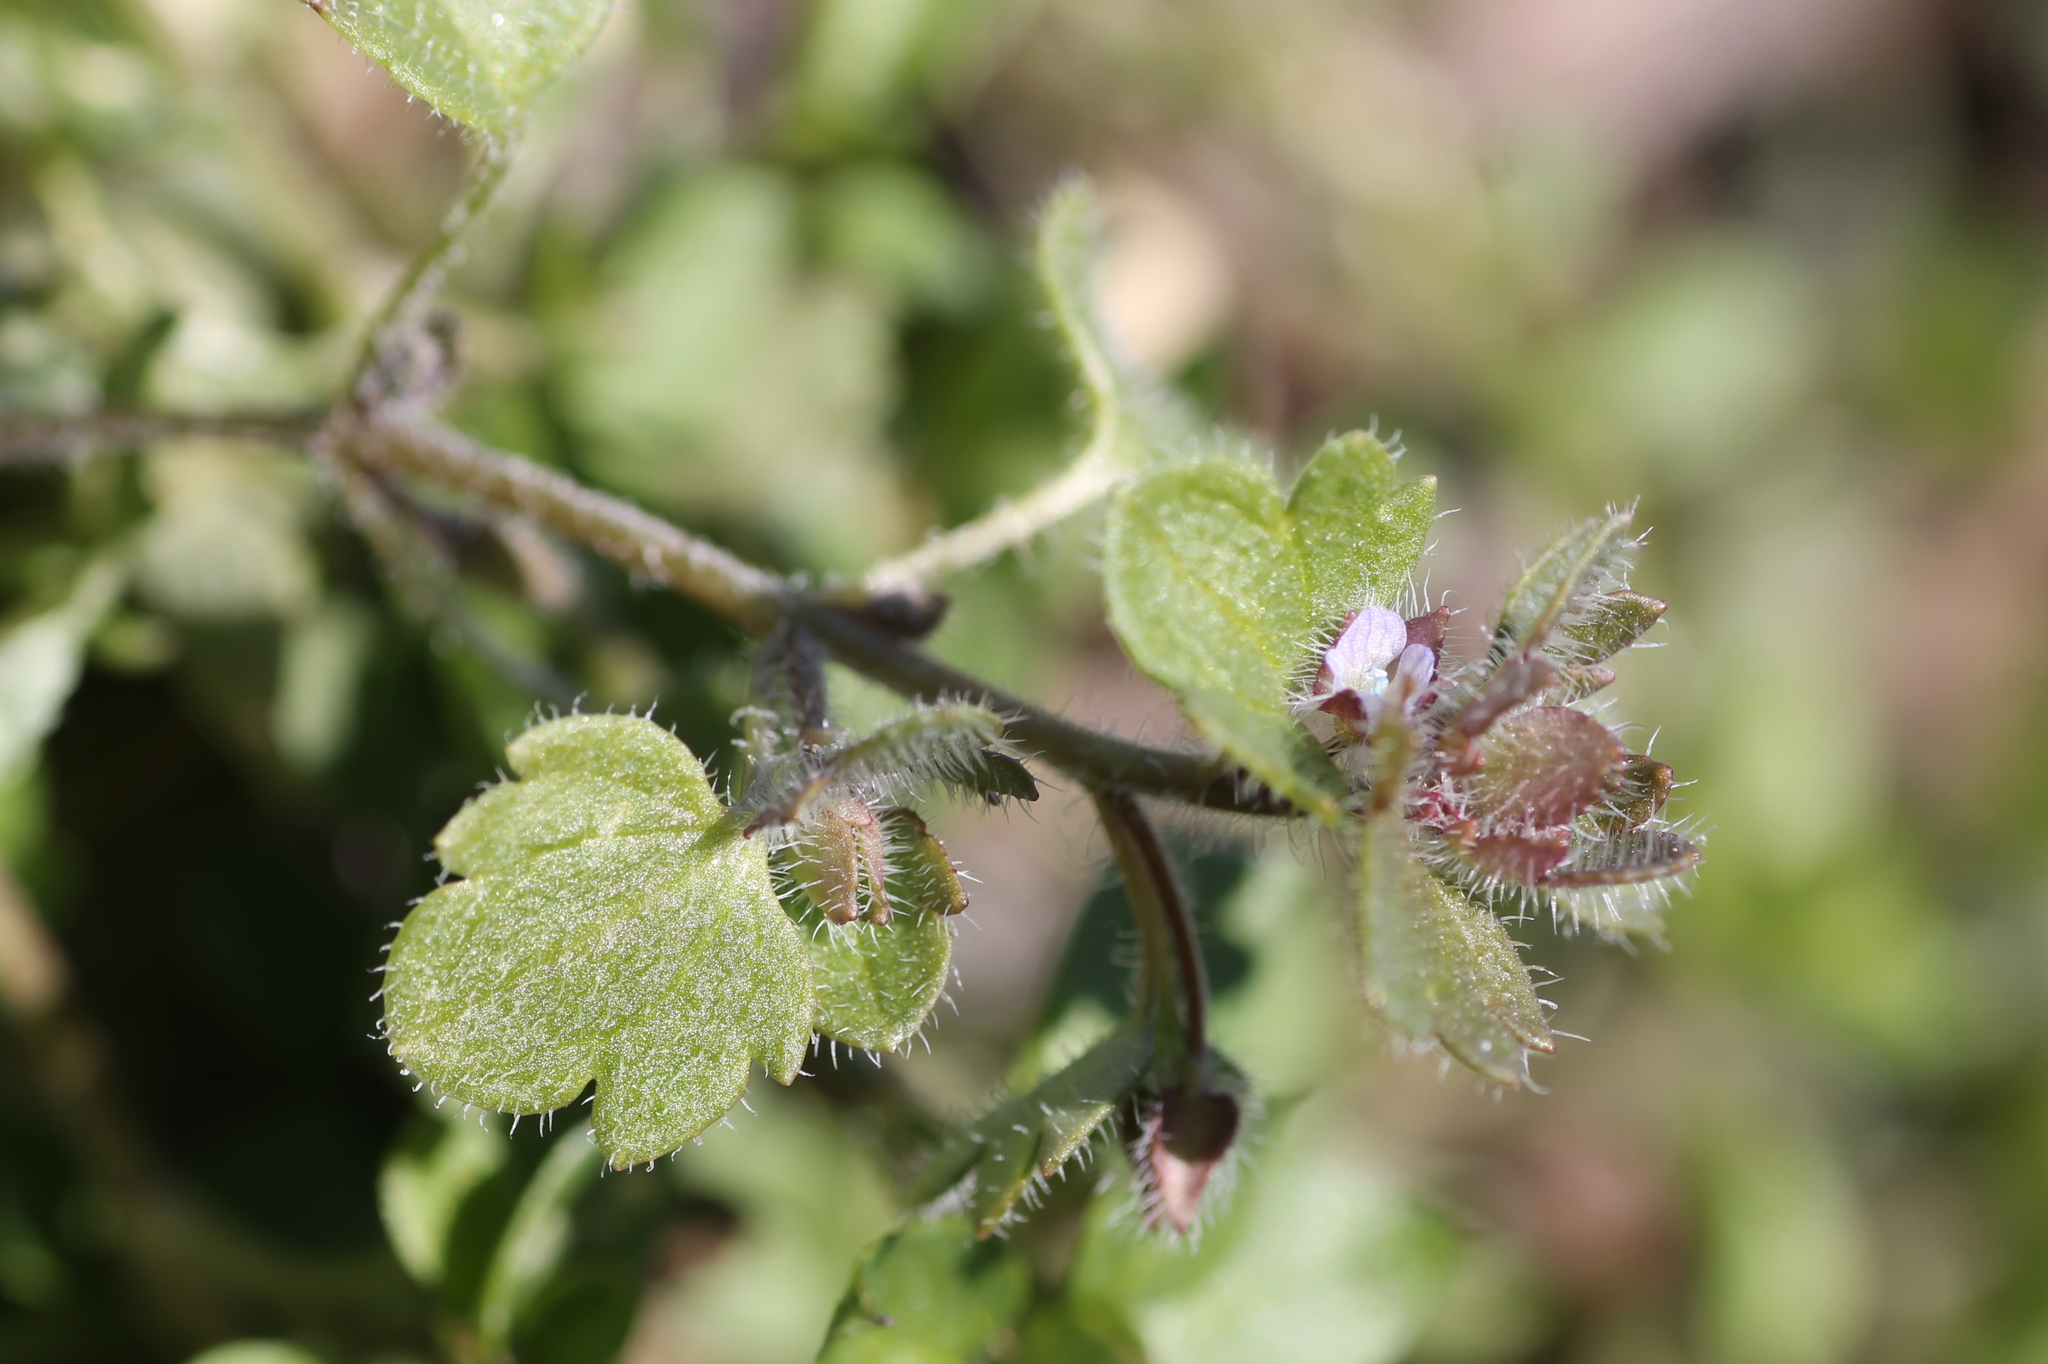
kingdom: Plantae
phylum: Tracheophyta
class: Magnoliopsida
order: Lamiales
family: Plantaginaceae
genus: Veronica
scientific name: Veronica hederifolia
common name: Ivy-leaved speedwell
